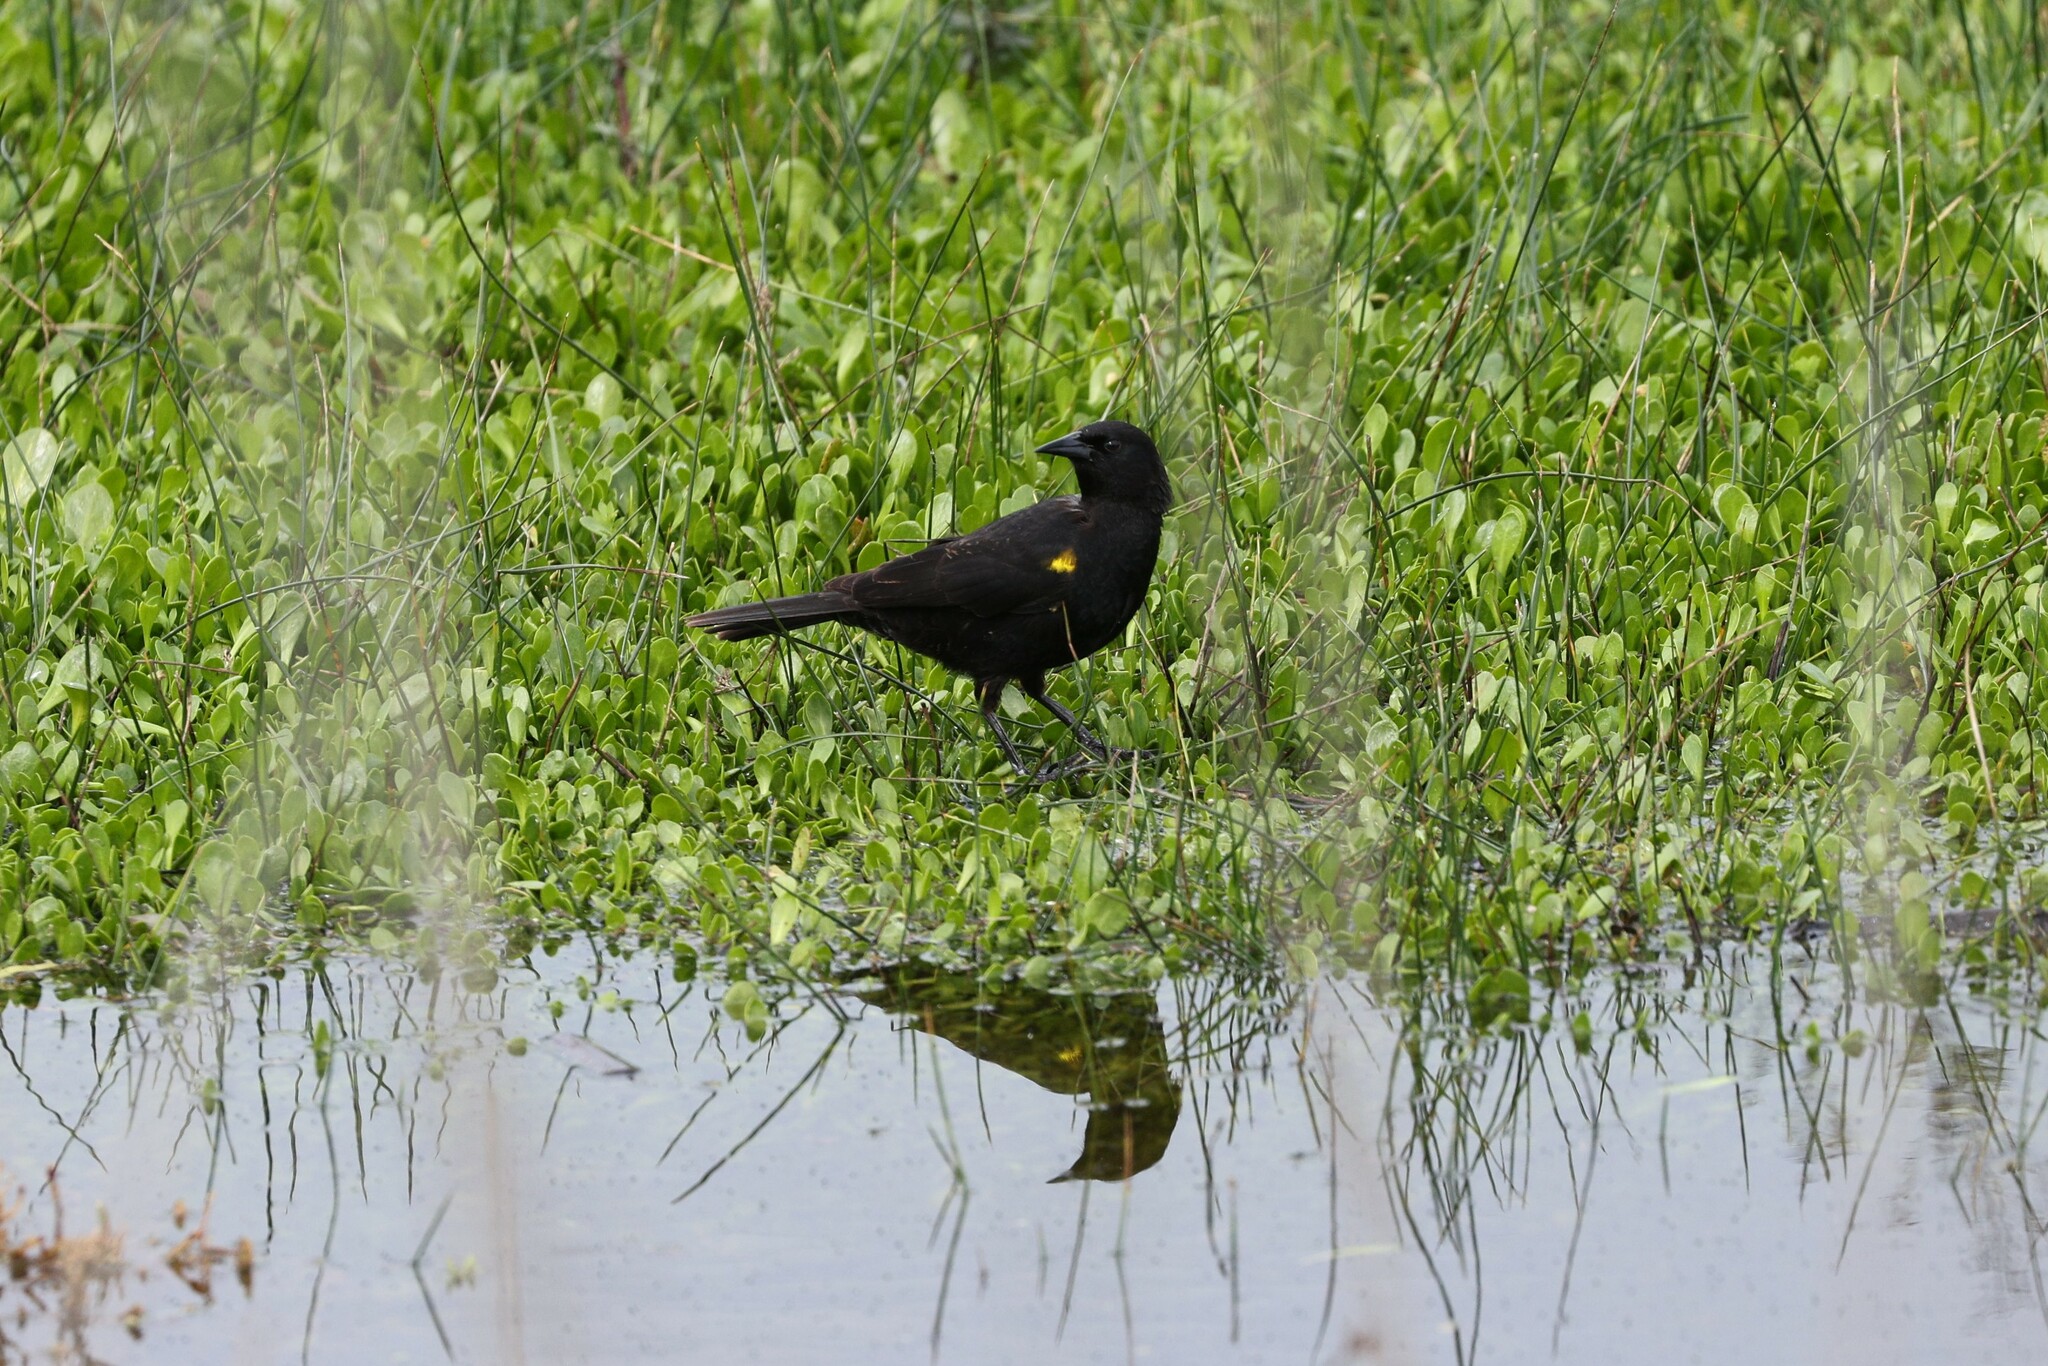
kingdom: Animalia
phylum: Chordata
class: Aves
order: Passeriformes
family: Icteridae
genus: Agelasticus
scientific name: Agelasticus thilius
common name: Yellow-winged blackbird
